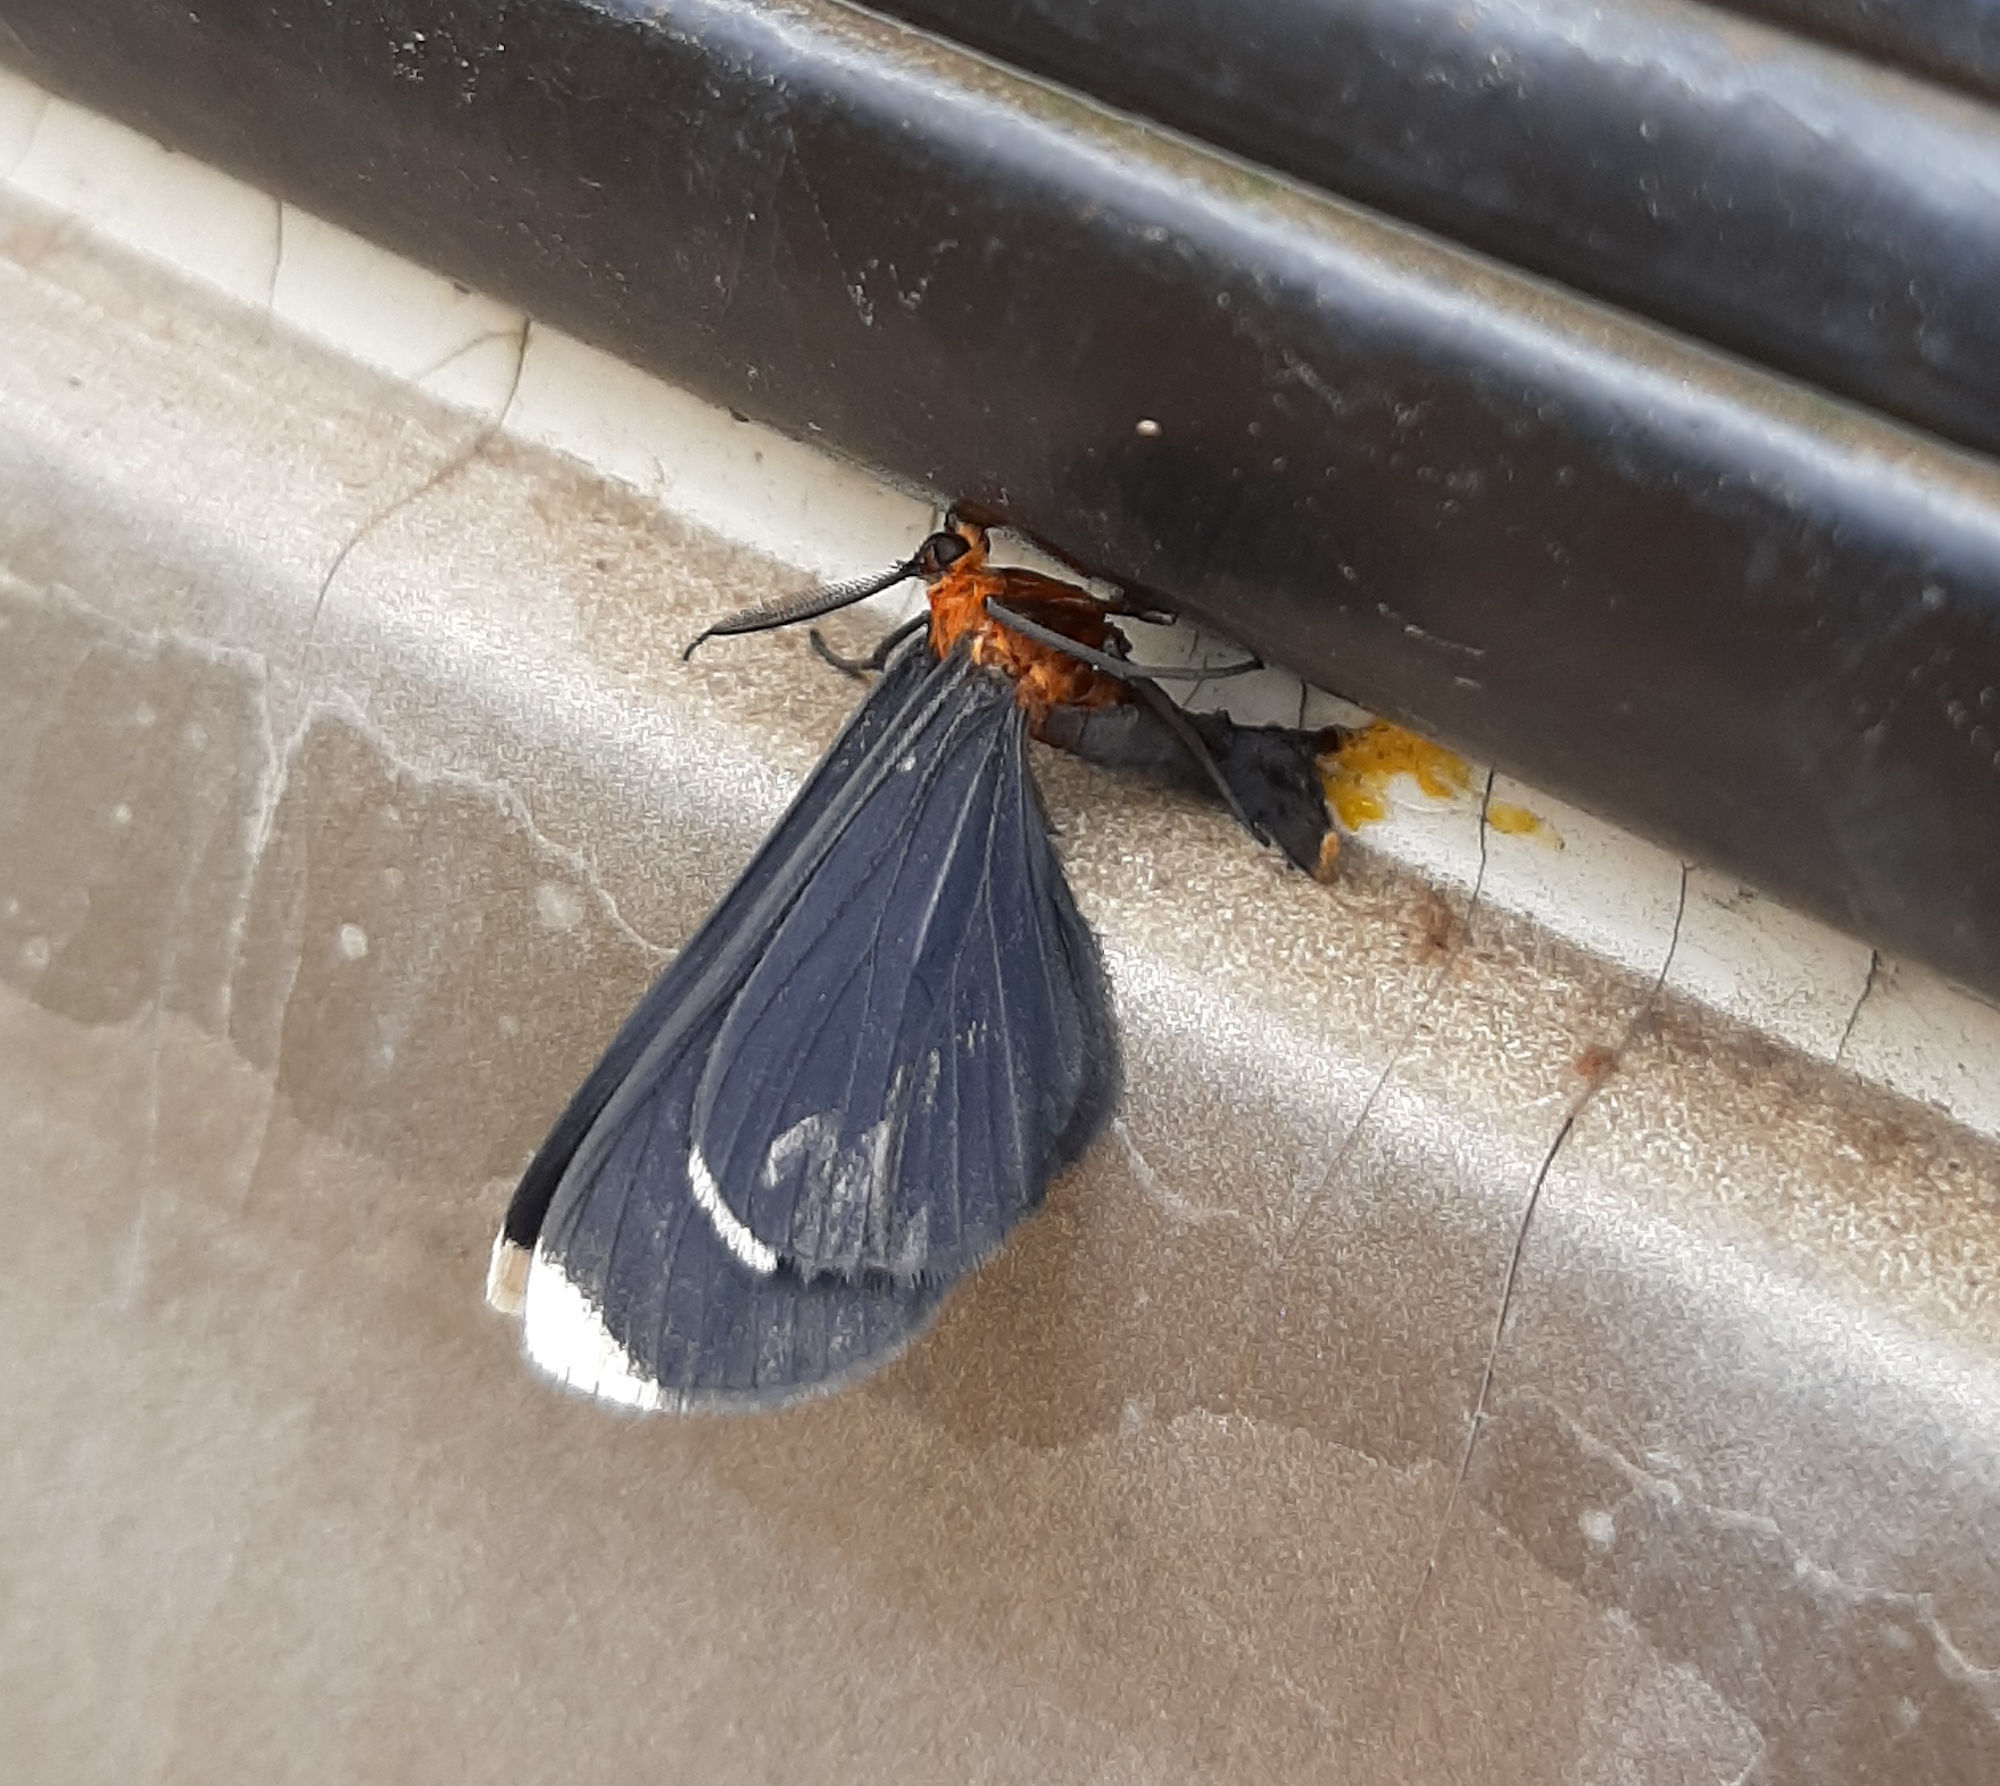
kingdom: Animalia
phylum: Arthropoda
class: Insecta
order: Lepidoptera
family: Geometridae
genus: Melanchroia
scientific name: Melanchroia chephise
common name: White-tipped black
